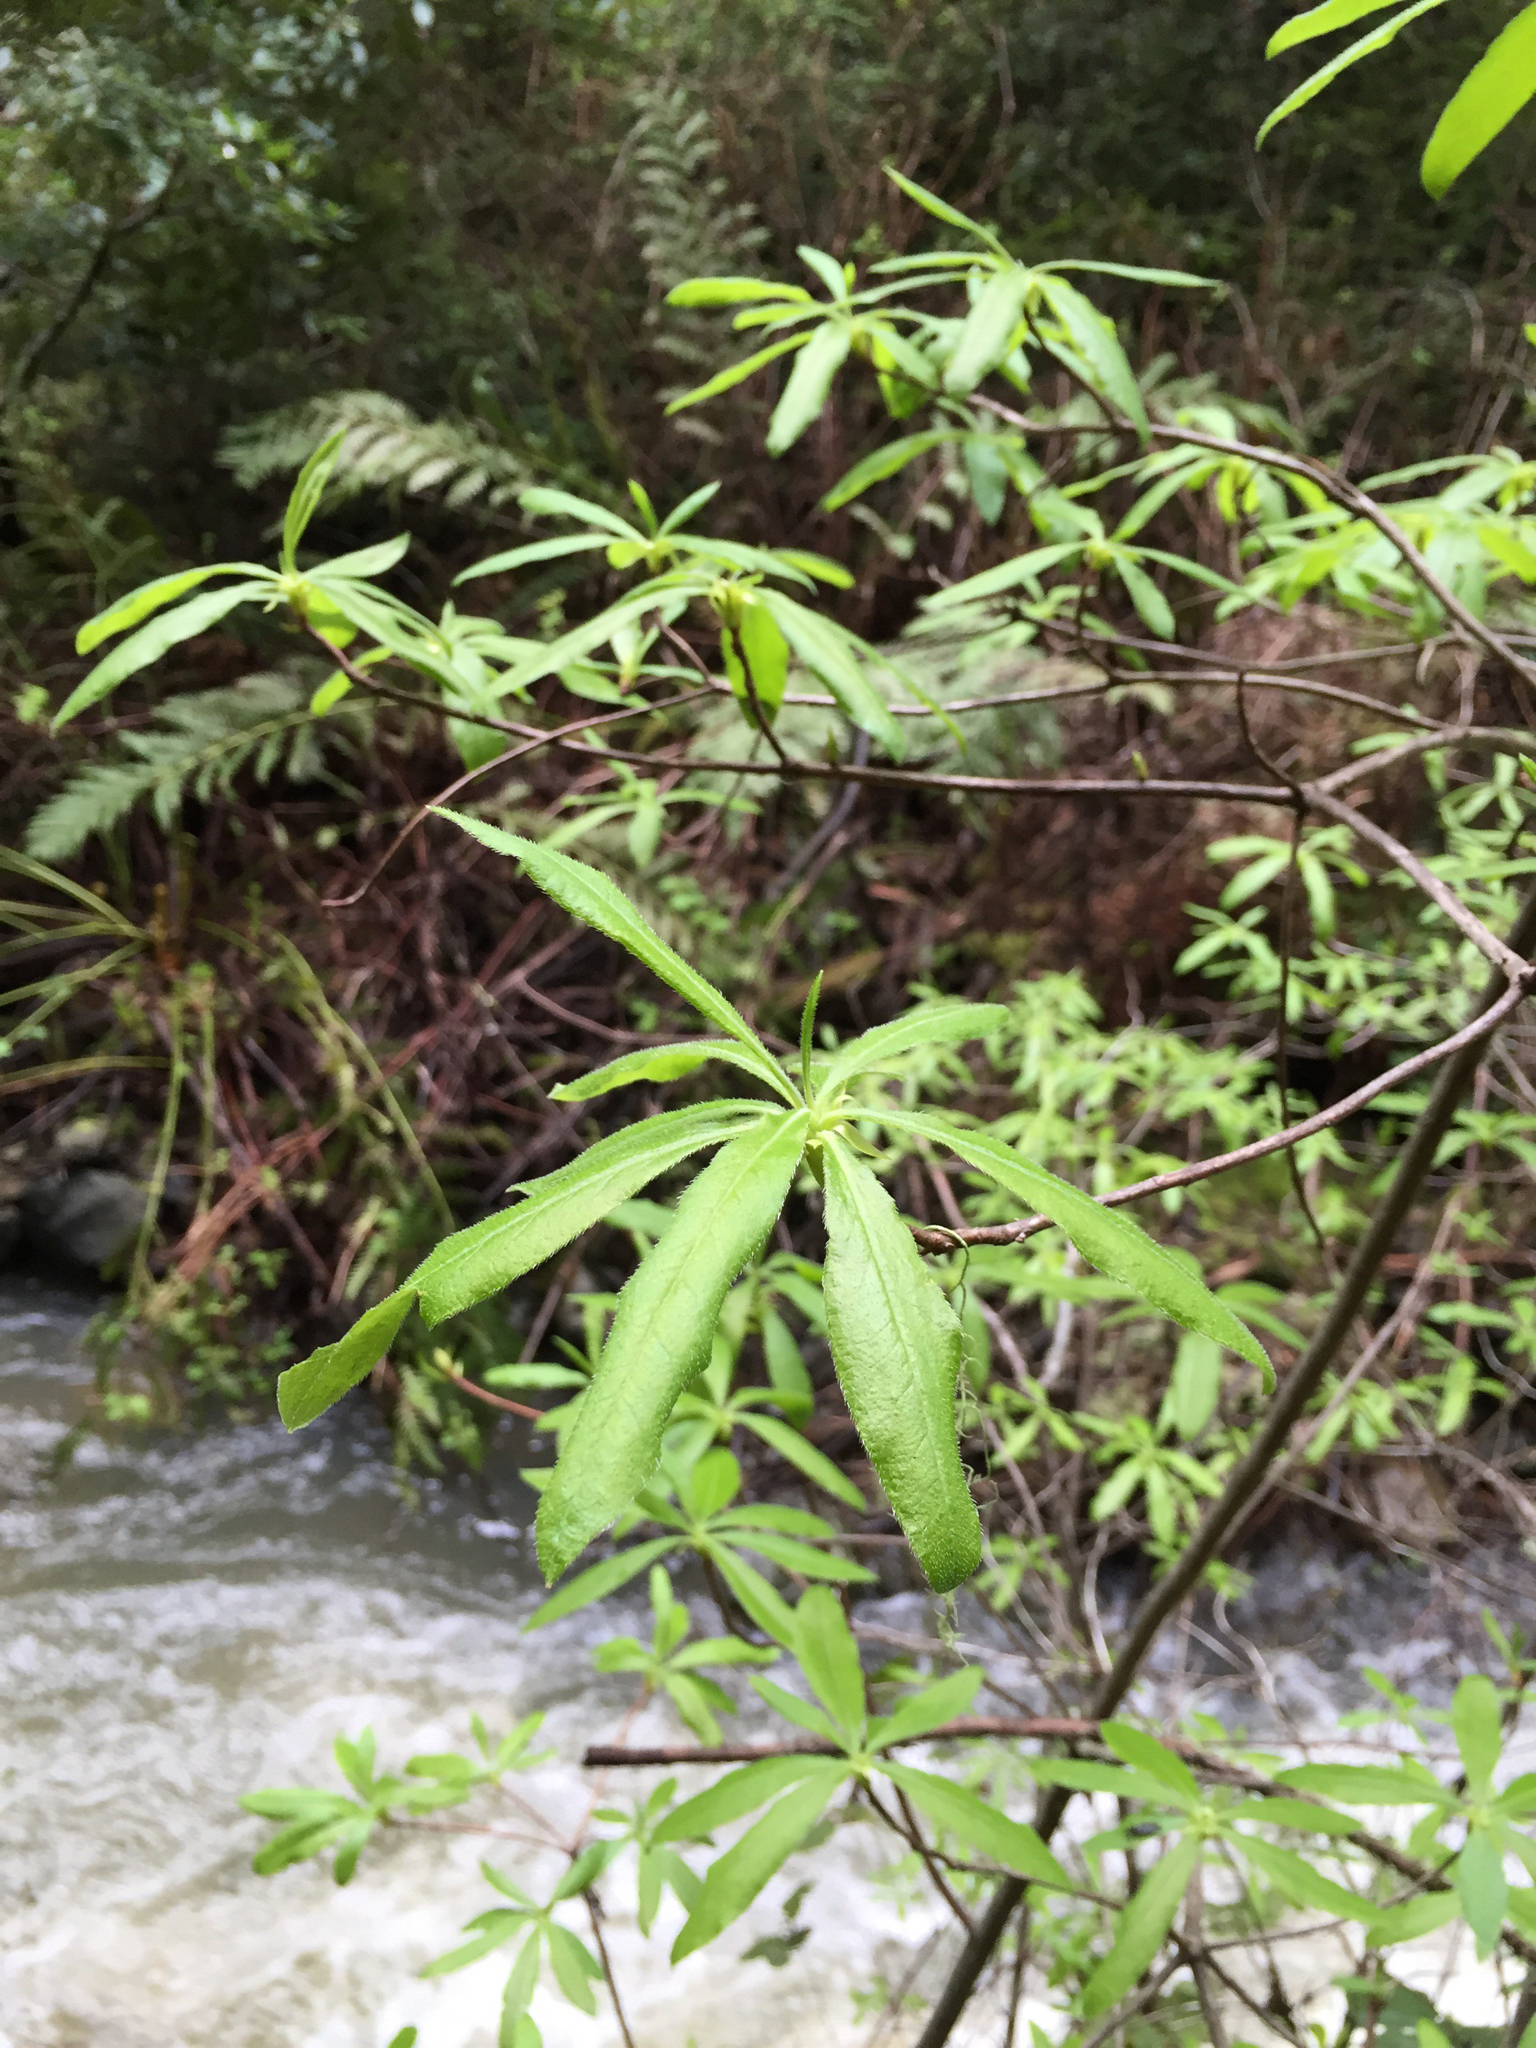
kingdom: Plantae
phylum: Tracheophyta
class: Magnoliopsida
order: Ericales
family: Ericaceae
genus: Rhododendron
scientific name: Rhododendron occidentale
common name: Western azalea
